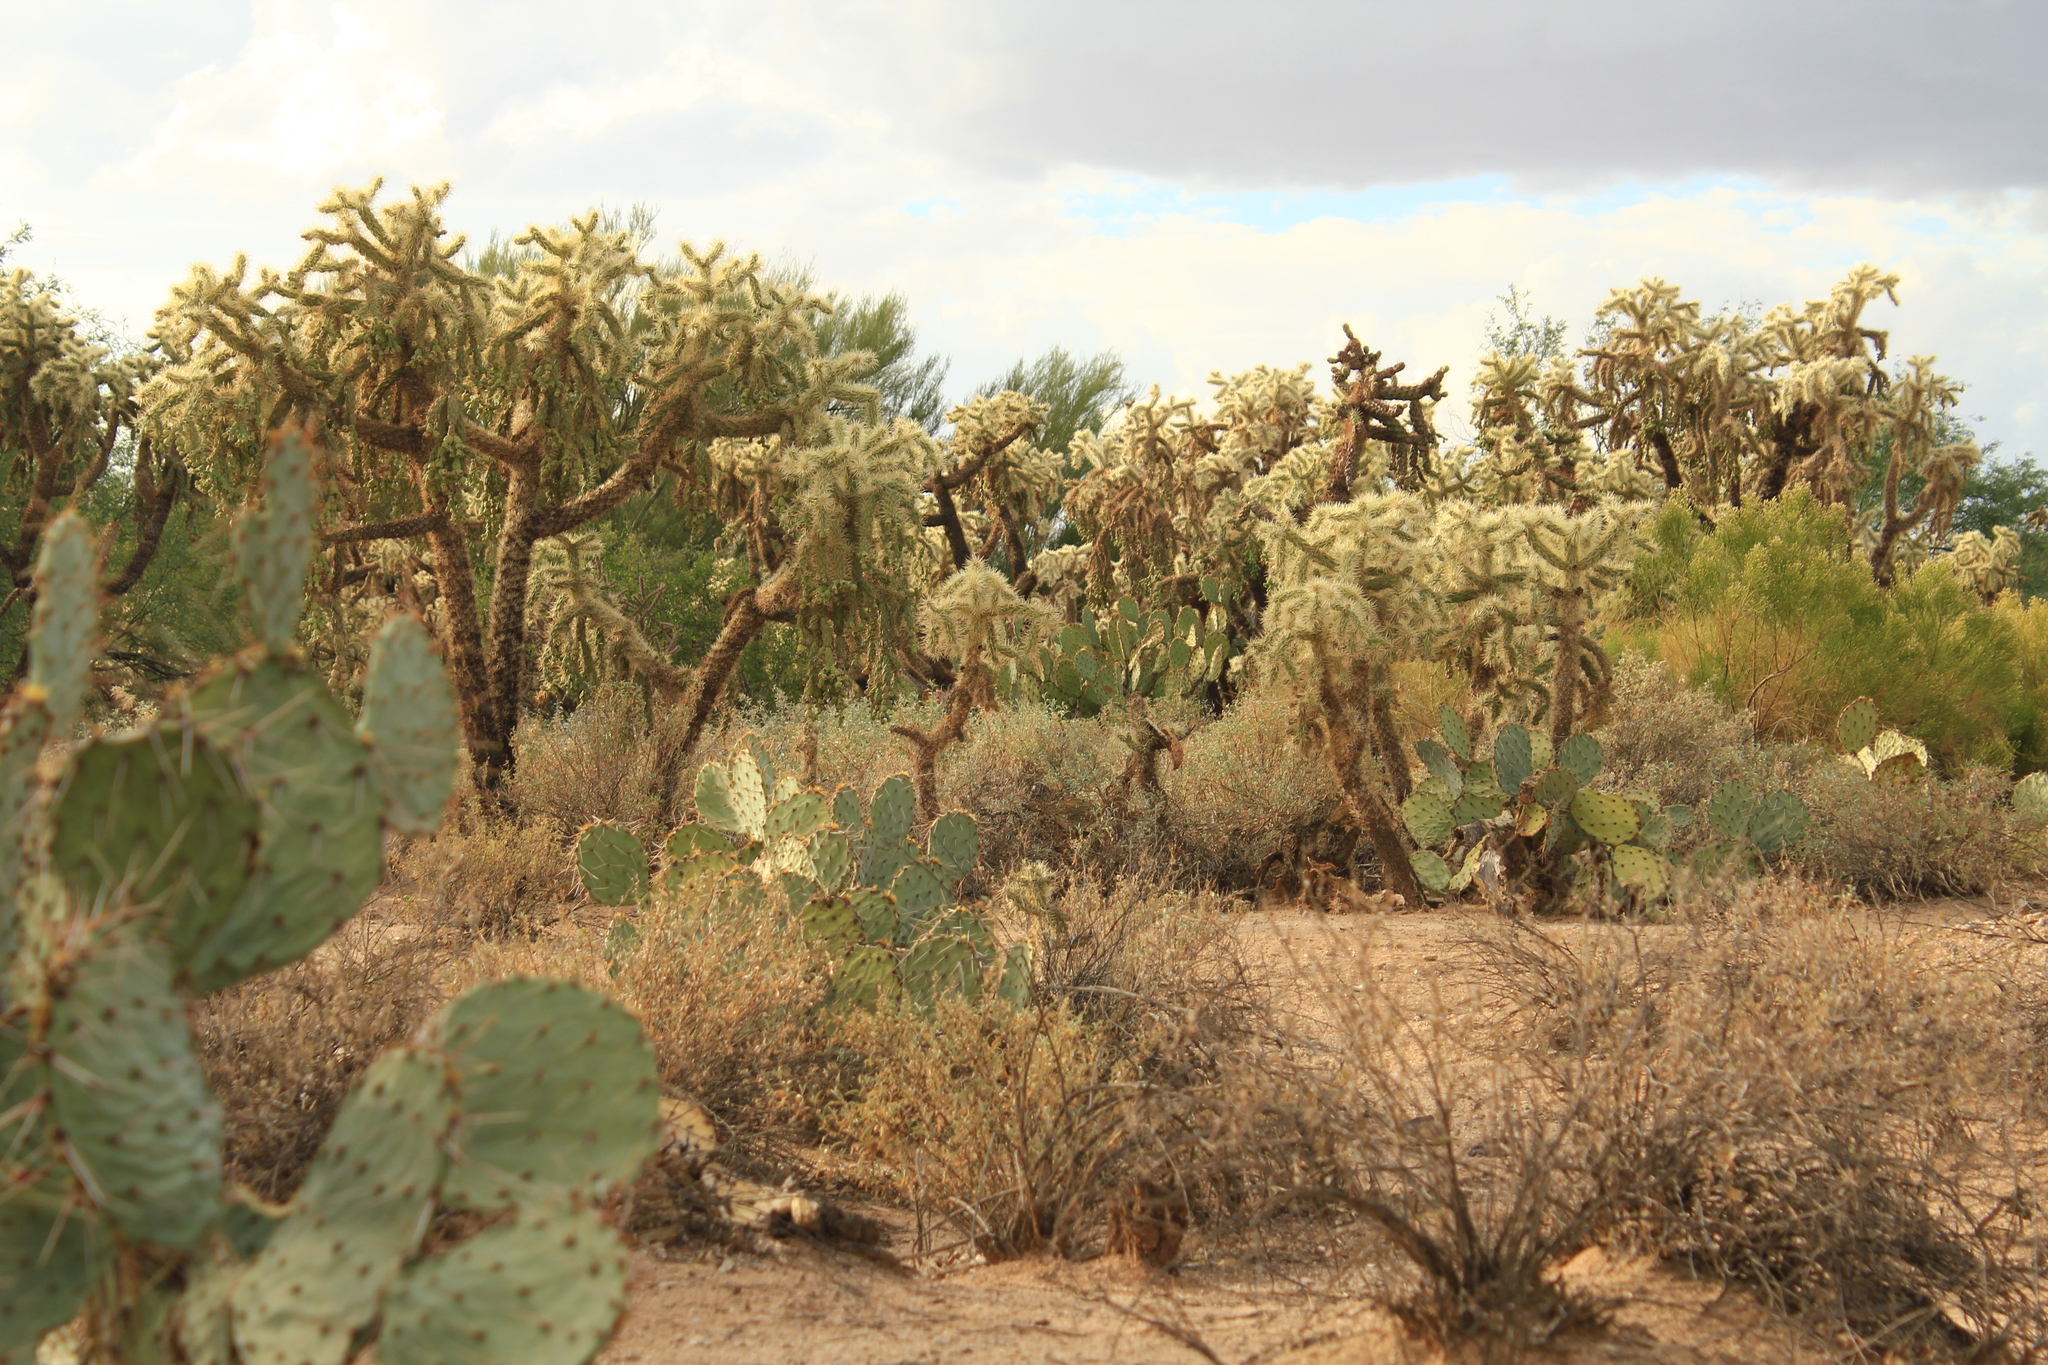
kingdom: Plantae
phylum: Tracheophyta
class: Magnoliopsida
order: Caryophyllales
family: Cactaceae
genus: Cylindropuntia
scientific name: Cylindropuntia fulgida
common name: Jumping cholla
